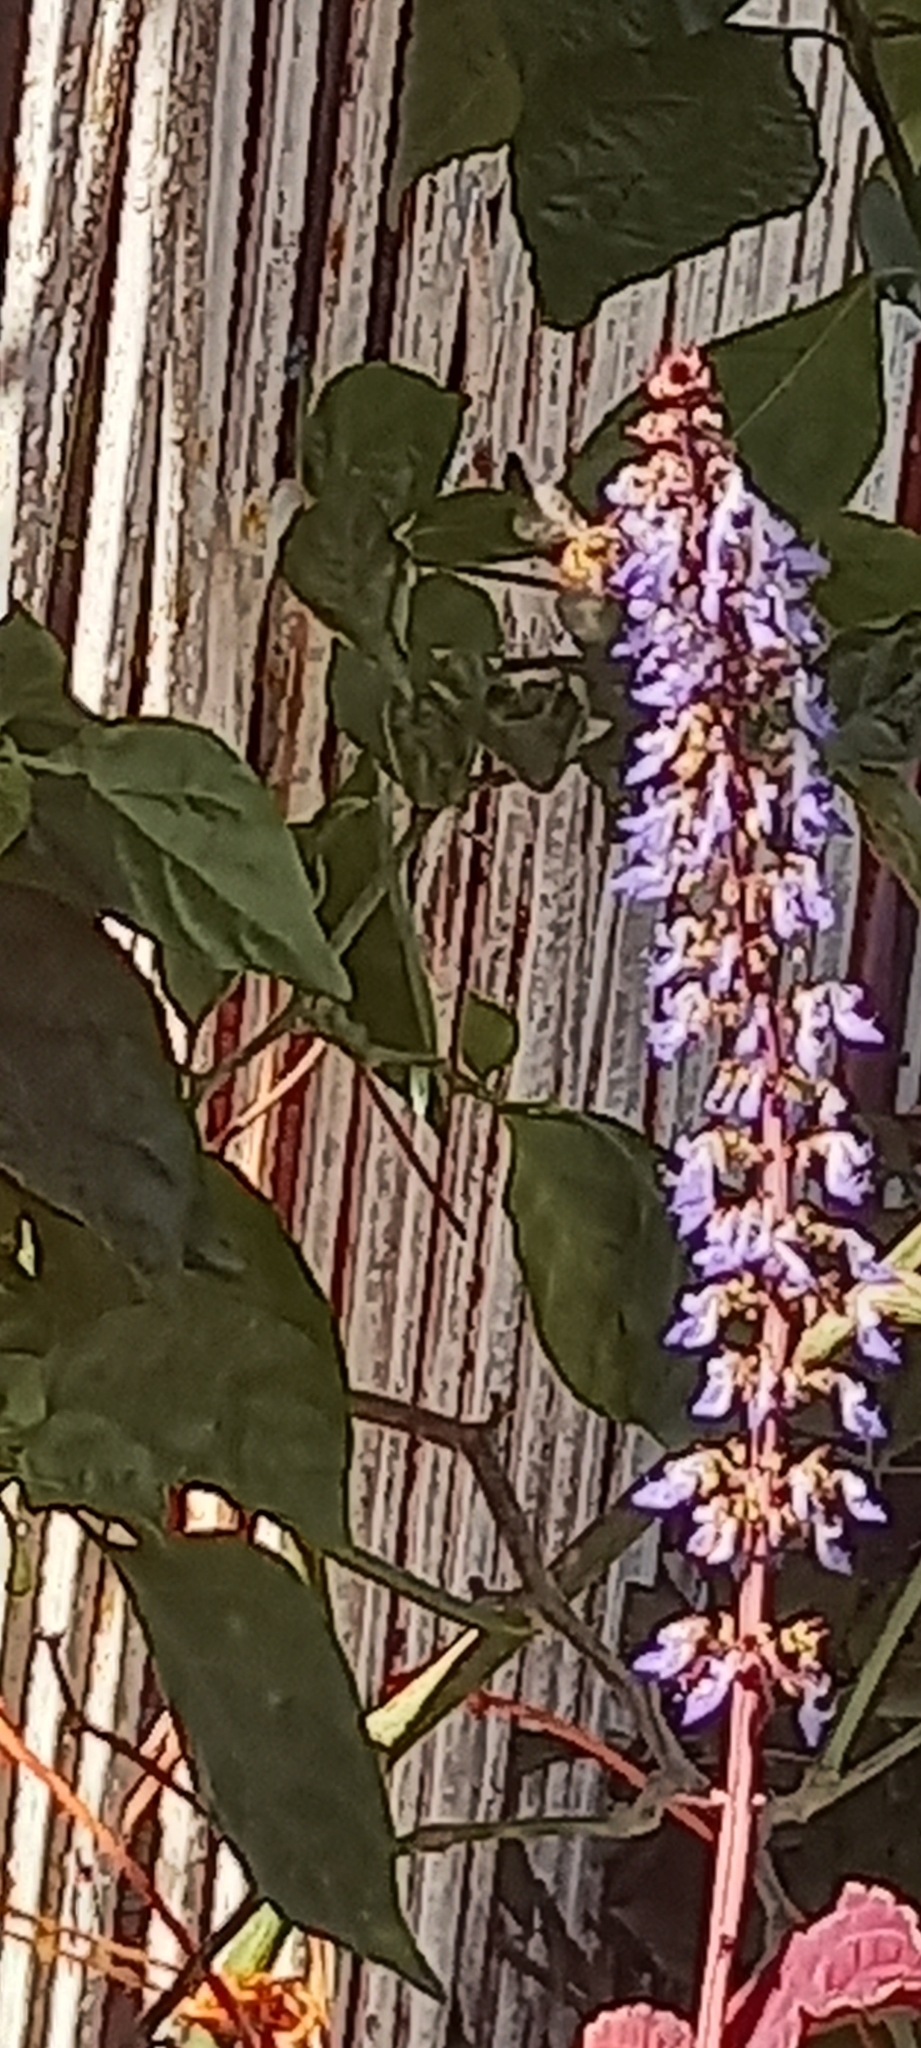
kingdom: Animalia
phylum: Arthropoda
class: Insecta
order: Hymenoptera
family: Apidae
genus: Apis
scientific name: Apis mellifera
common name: Honey bee
